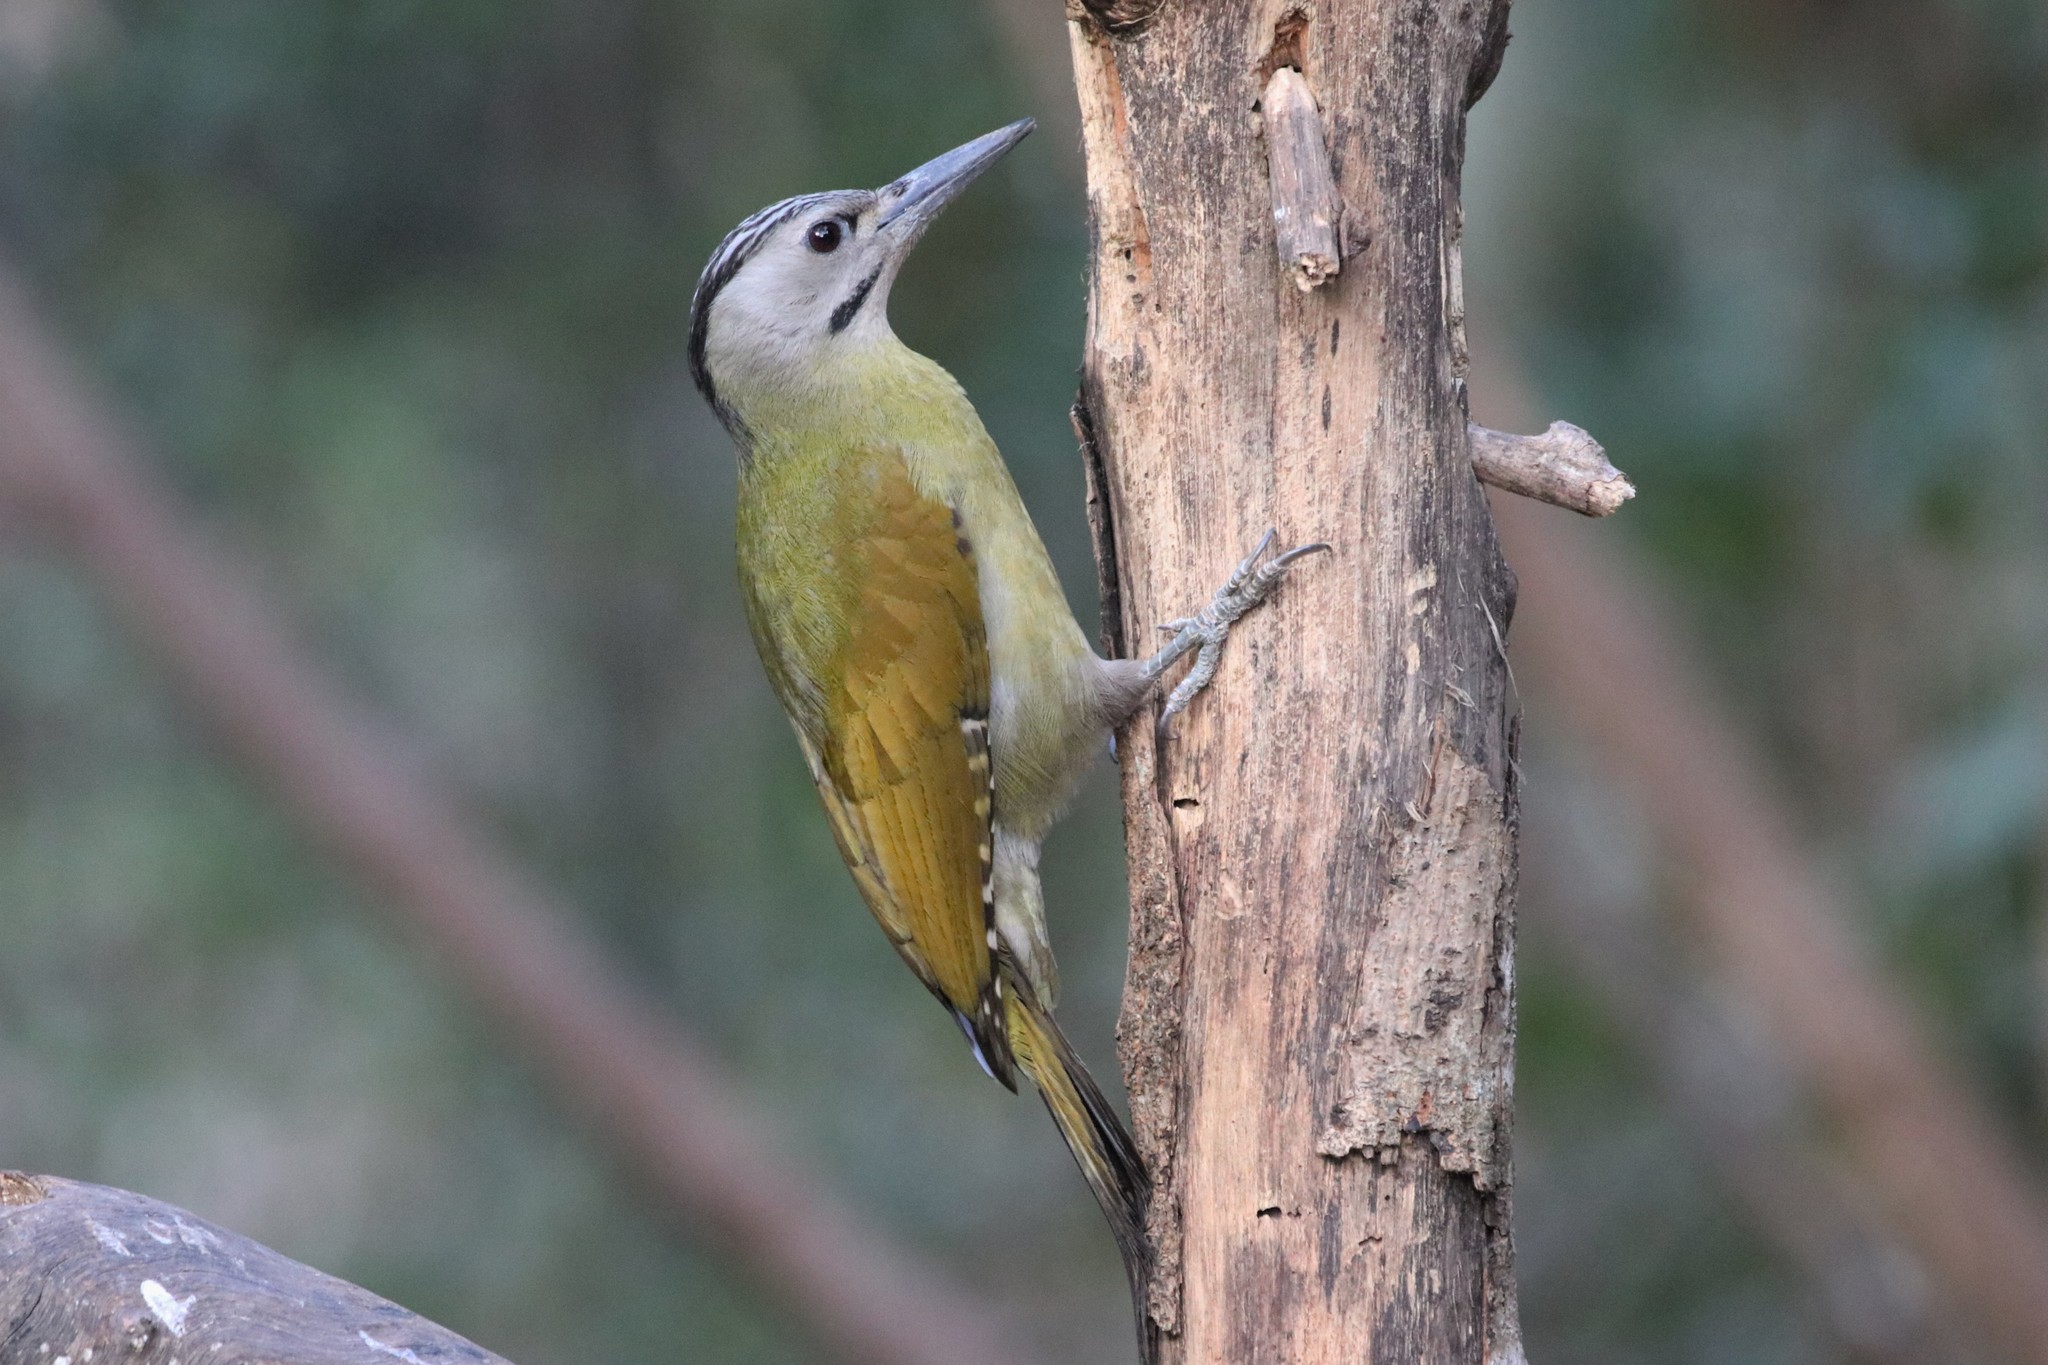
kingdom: Animalia
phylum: Chordata
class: Aves
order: Piciformes
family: Picidae
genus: Picus
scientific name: Picus canus
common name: Grey-headed woodpecker
